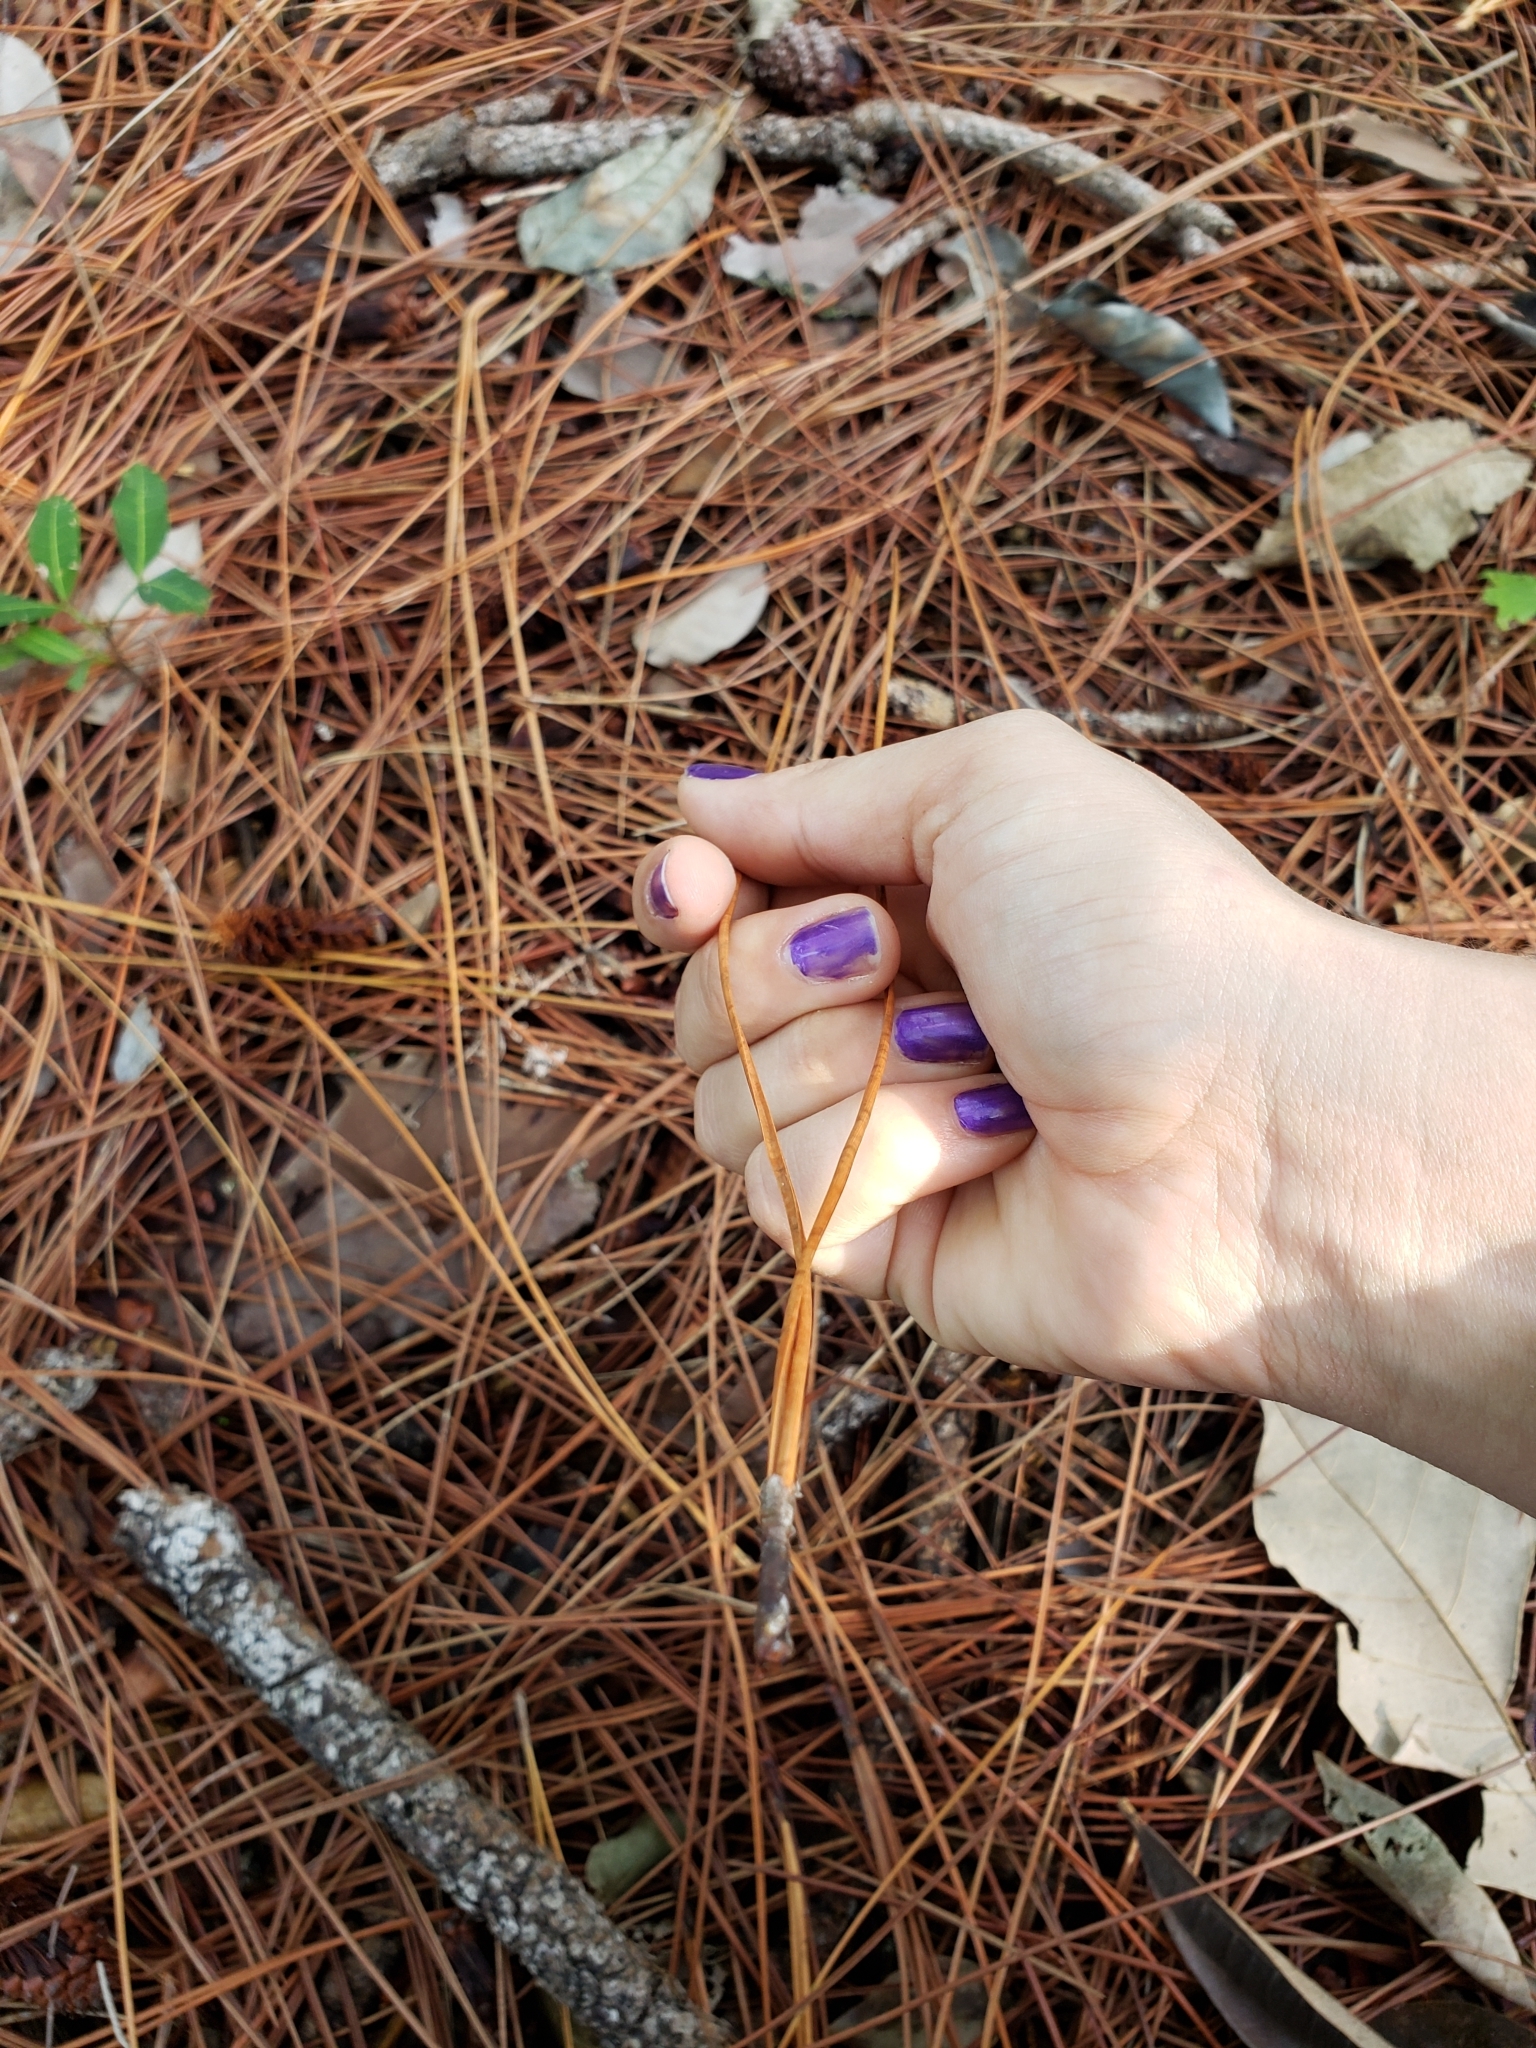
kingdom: Plantae
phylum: Tracheophyta
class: Pinopsida
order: Pinales
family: Pinaceae
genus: Pinus
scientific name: Pinus elliottii
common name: Slash pine
